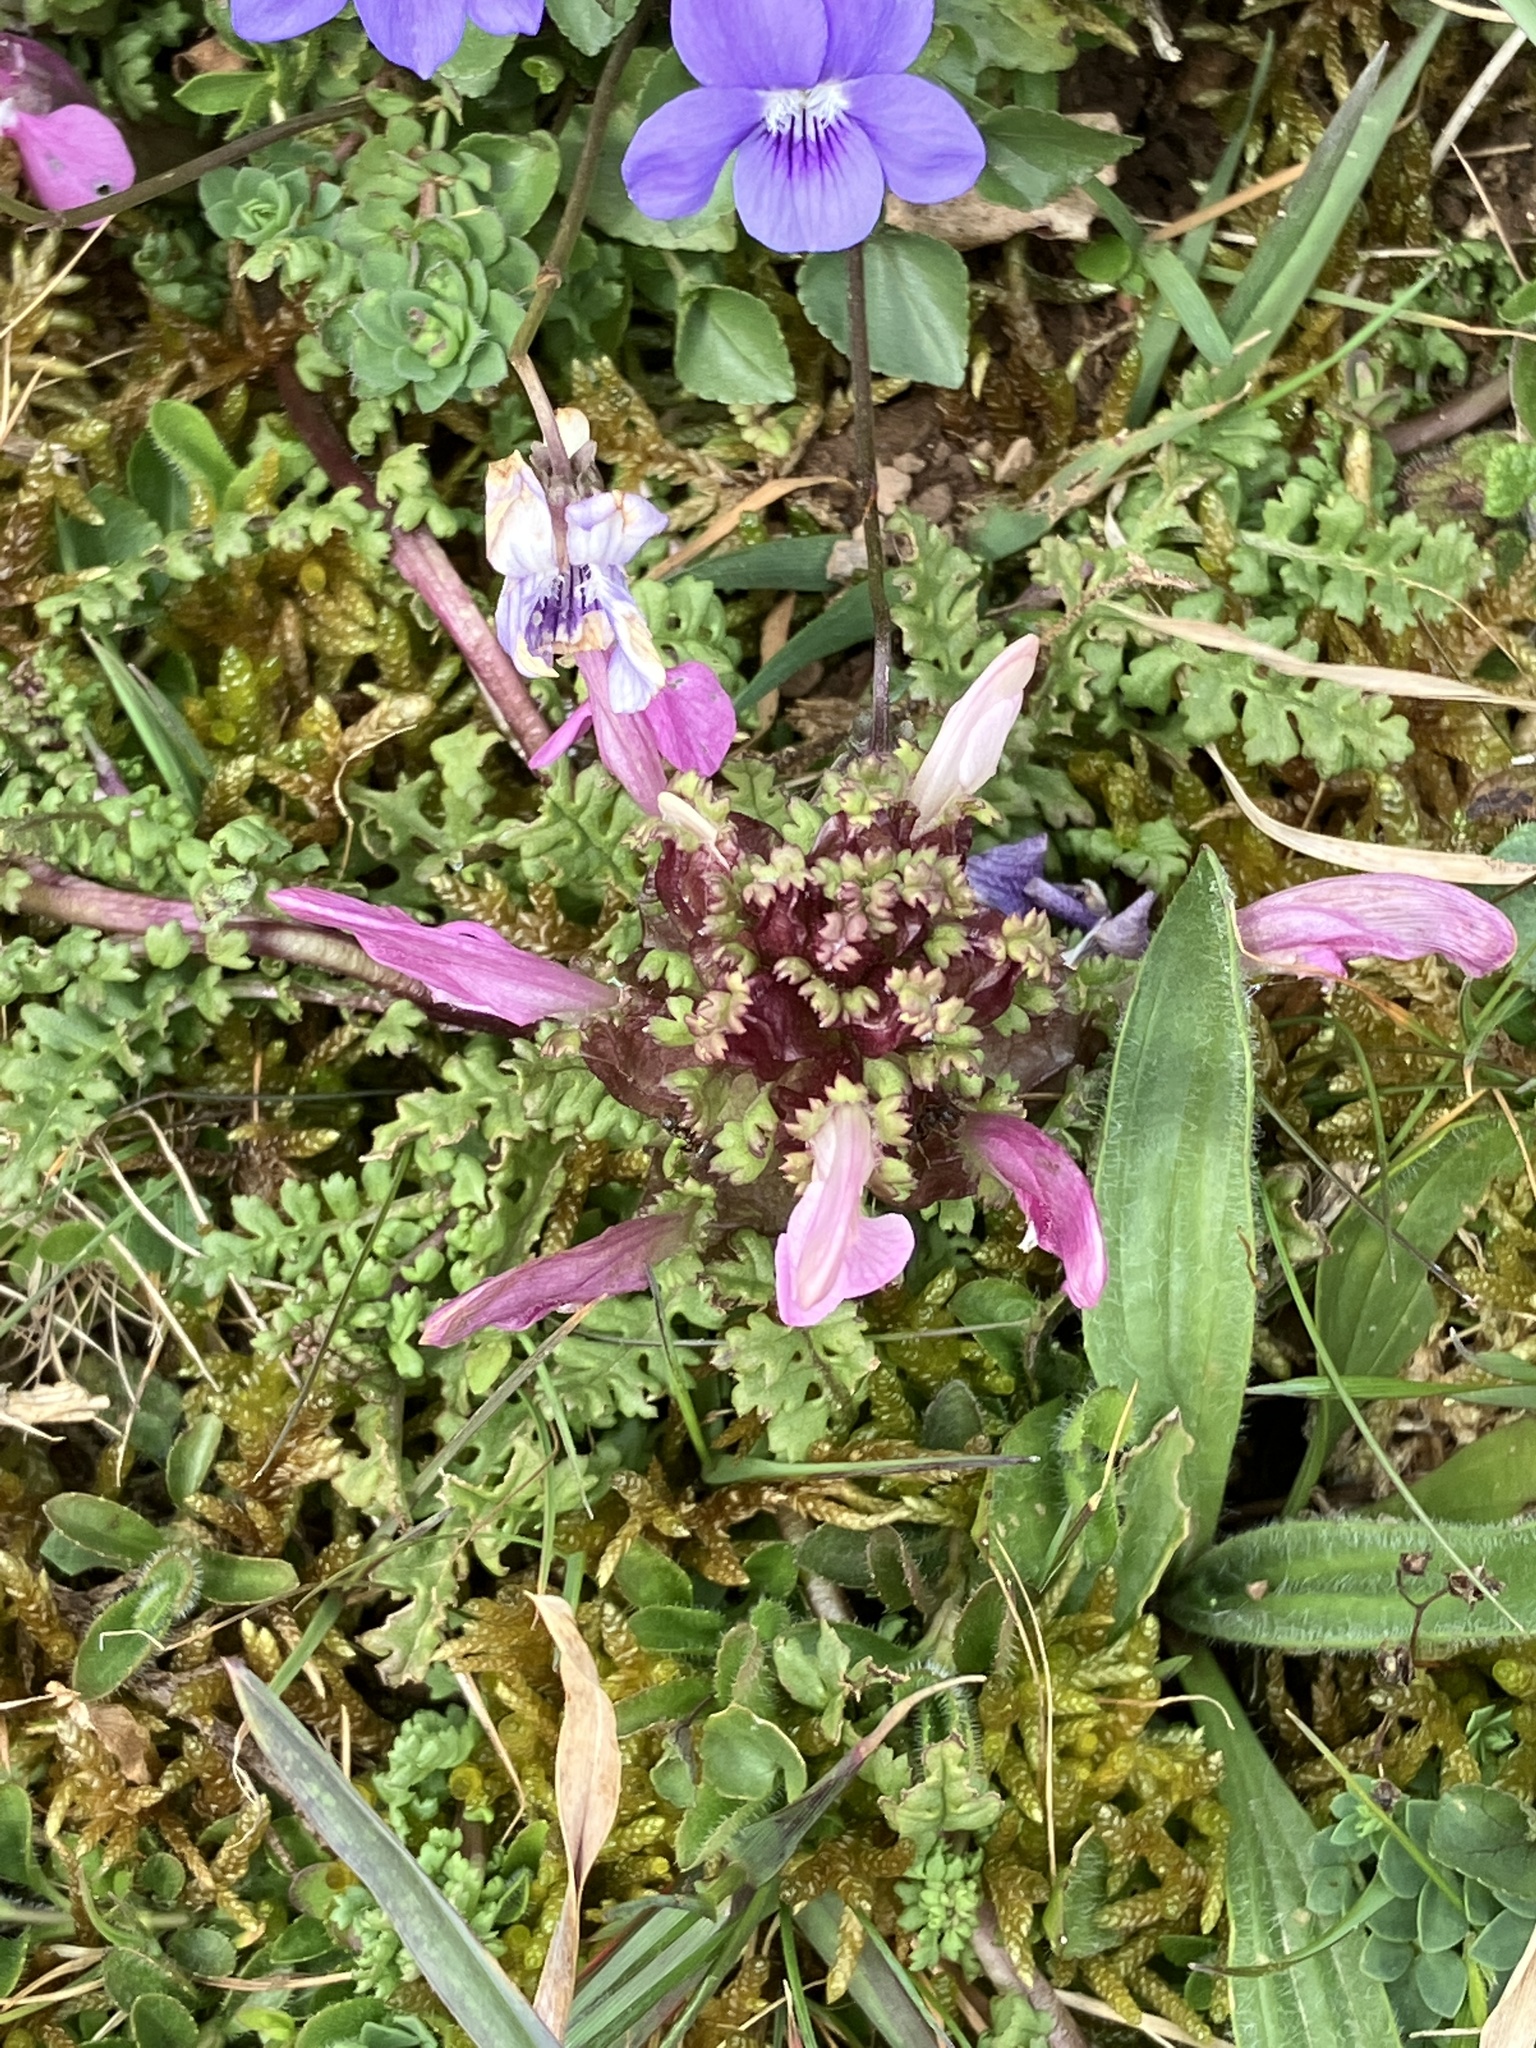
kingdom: Plantae
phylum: Tracheophyta
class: Magnoliopsida
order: Lamiales
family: Orobanchaceae
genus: Pedicularis
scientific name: Pedicularis sylvatica
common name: Lousewort
